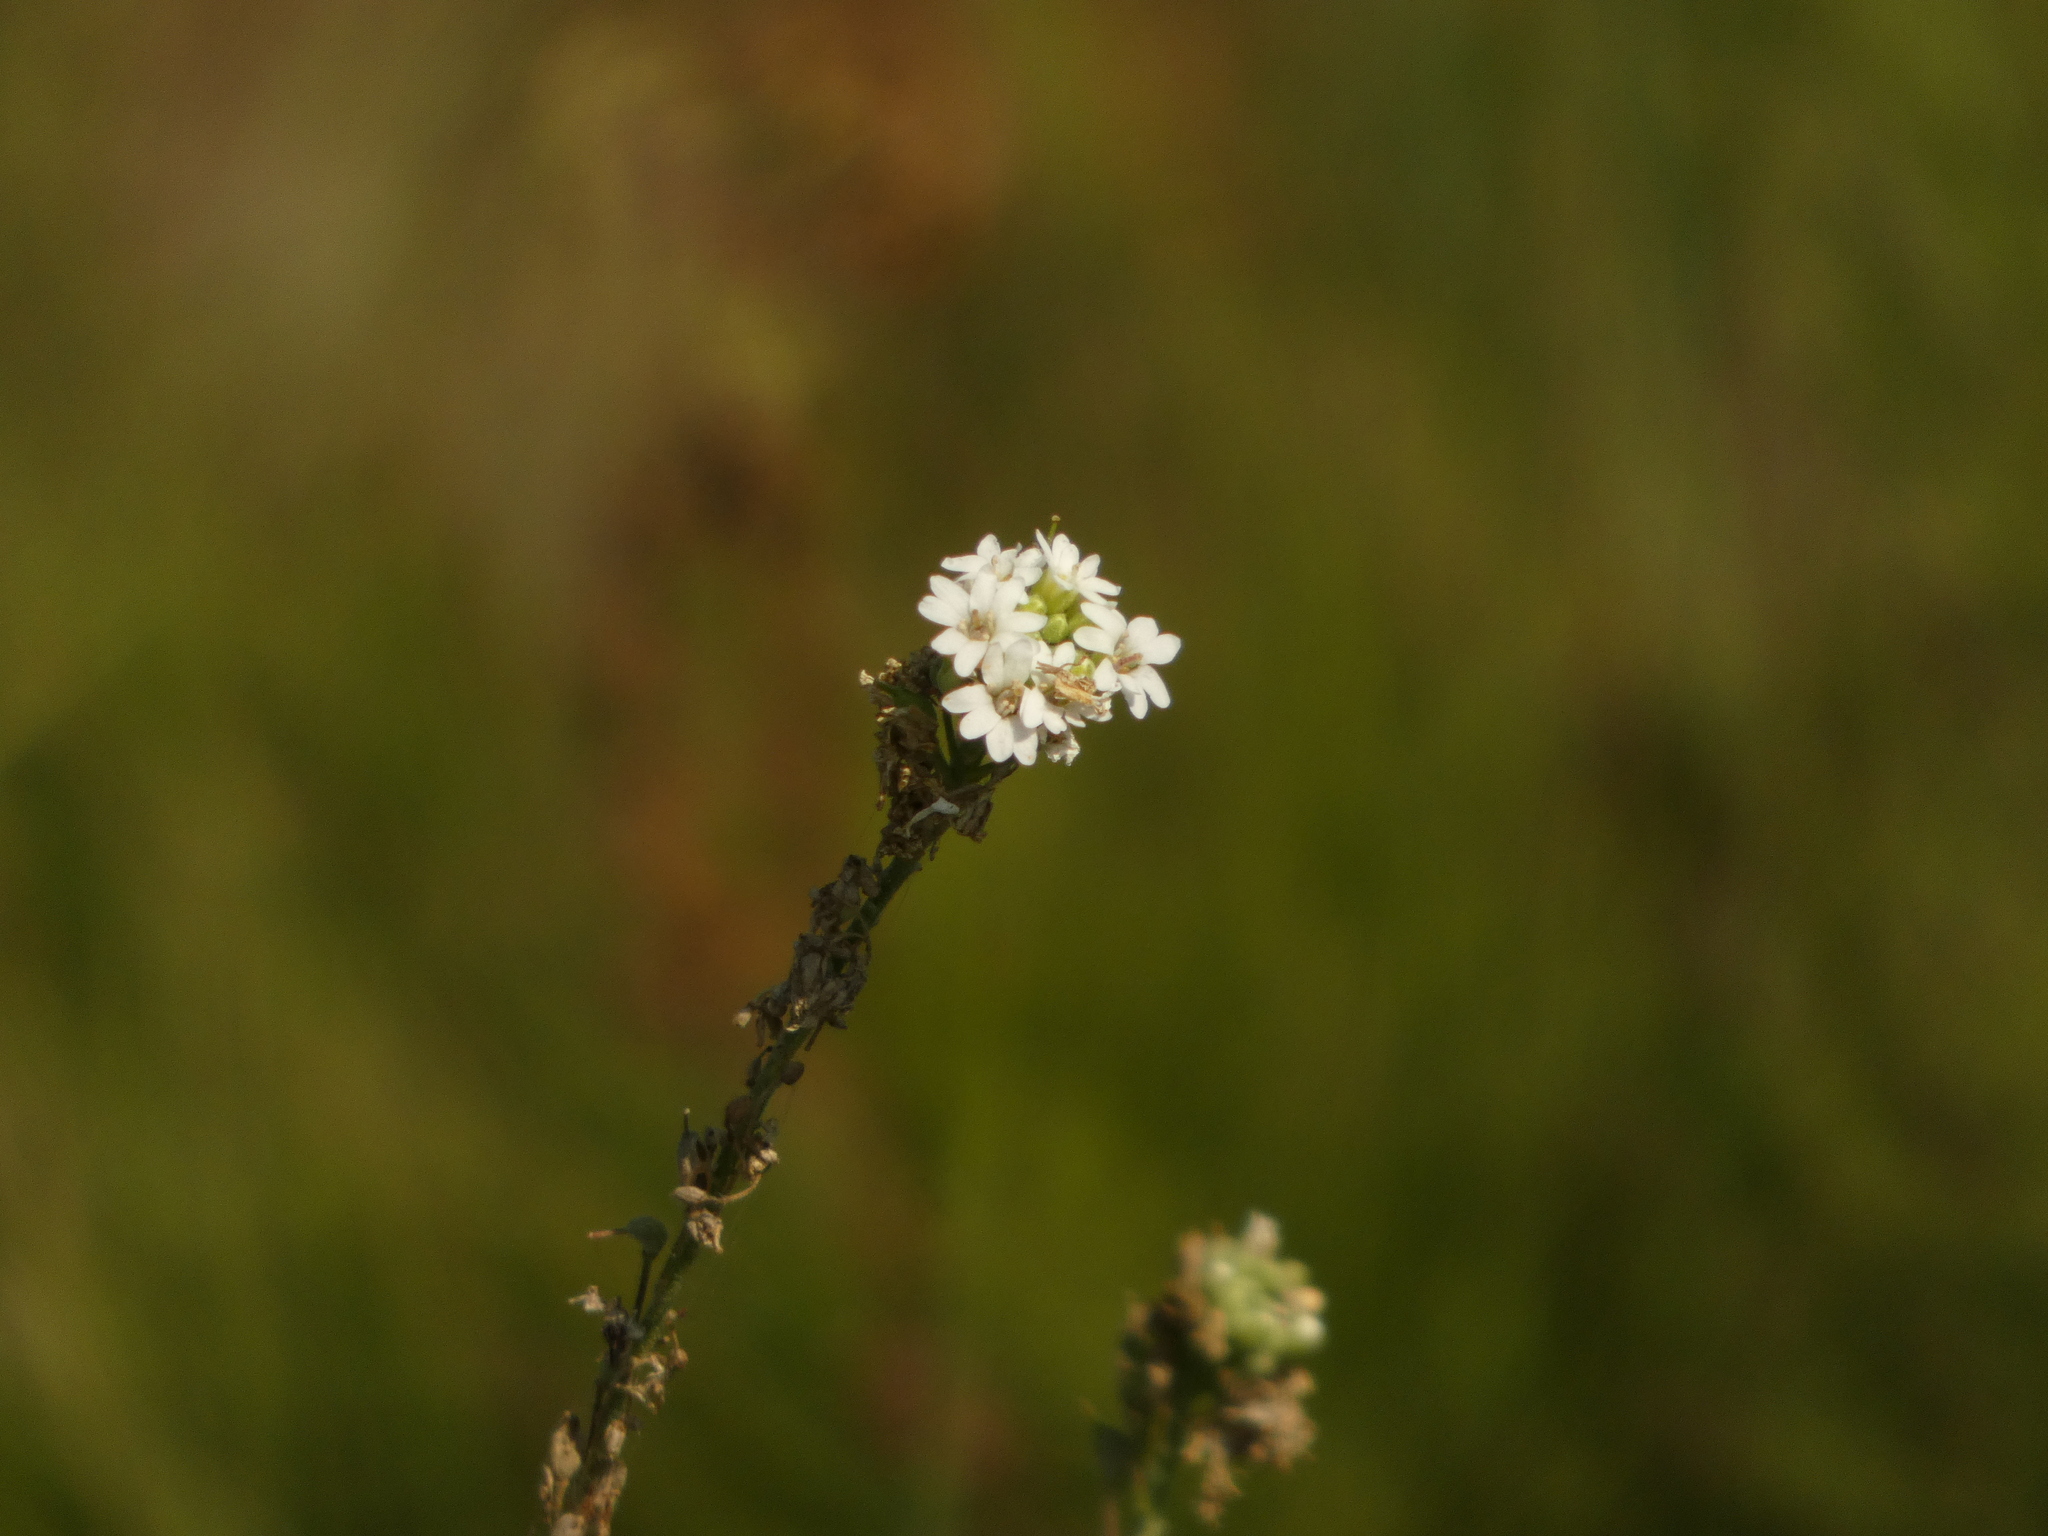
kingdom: Plantae
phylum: Tracheophyta
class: Magnoliopsida
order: Brassicales
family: Brassicaceae
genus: Berteroa
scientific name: Berteroa incana
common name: Hoary alison
